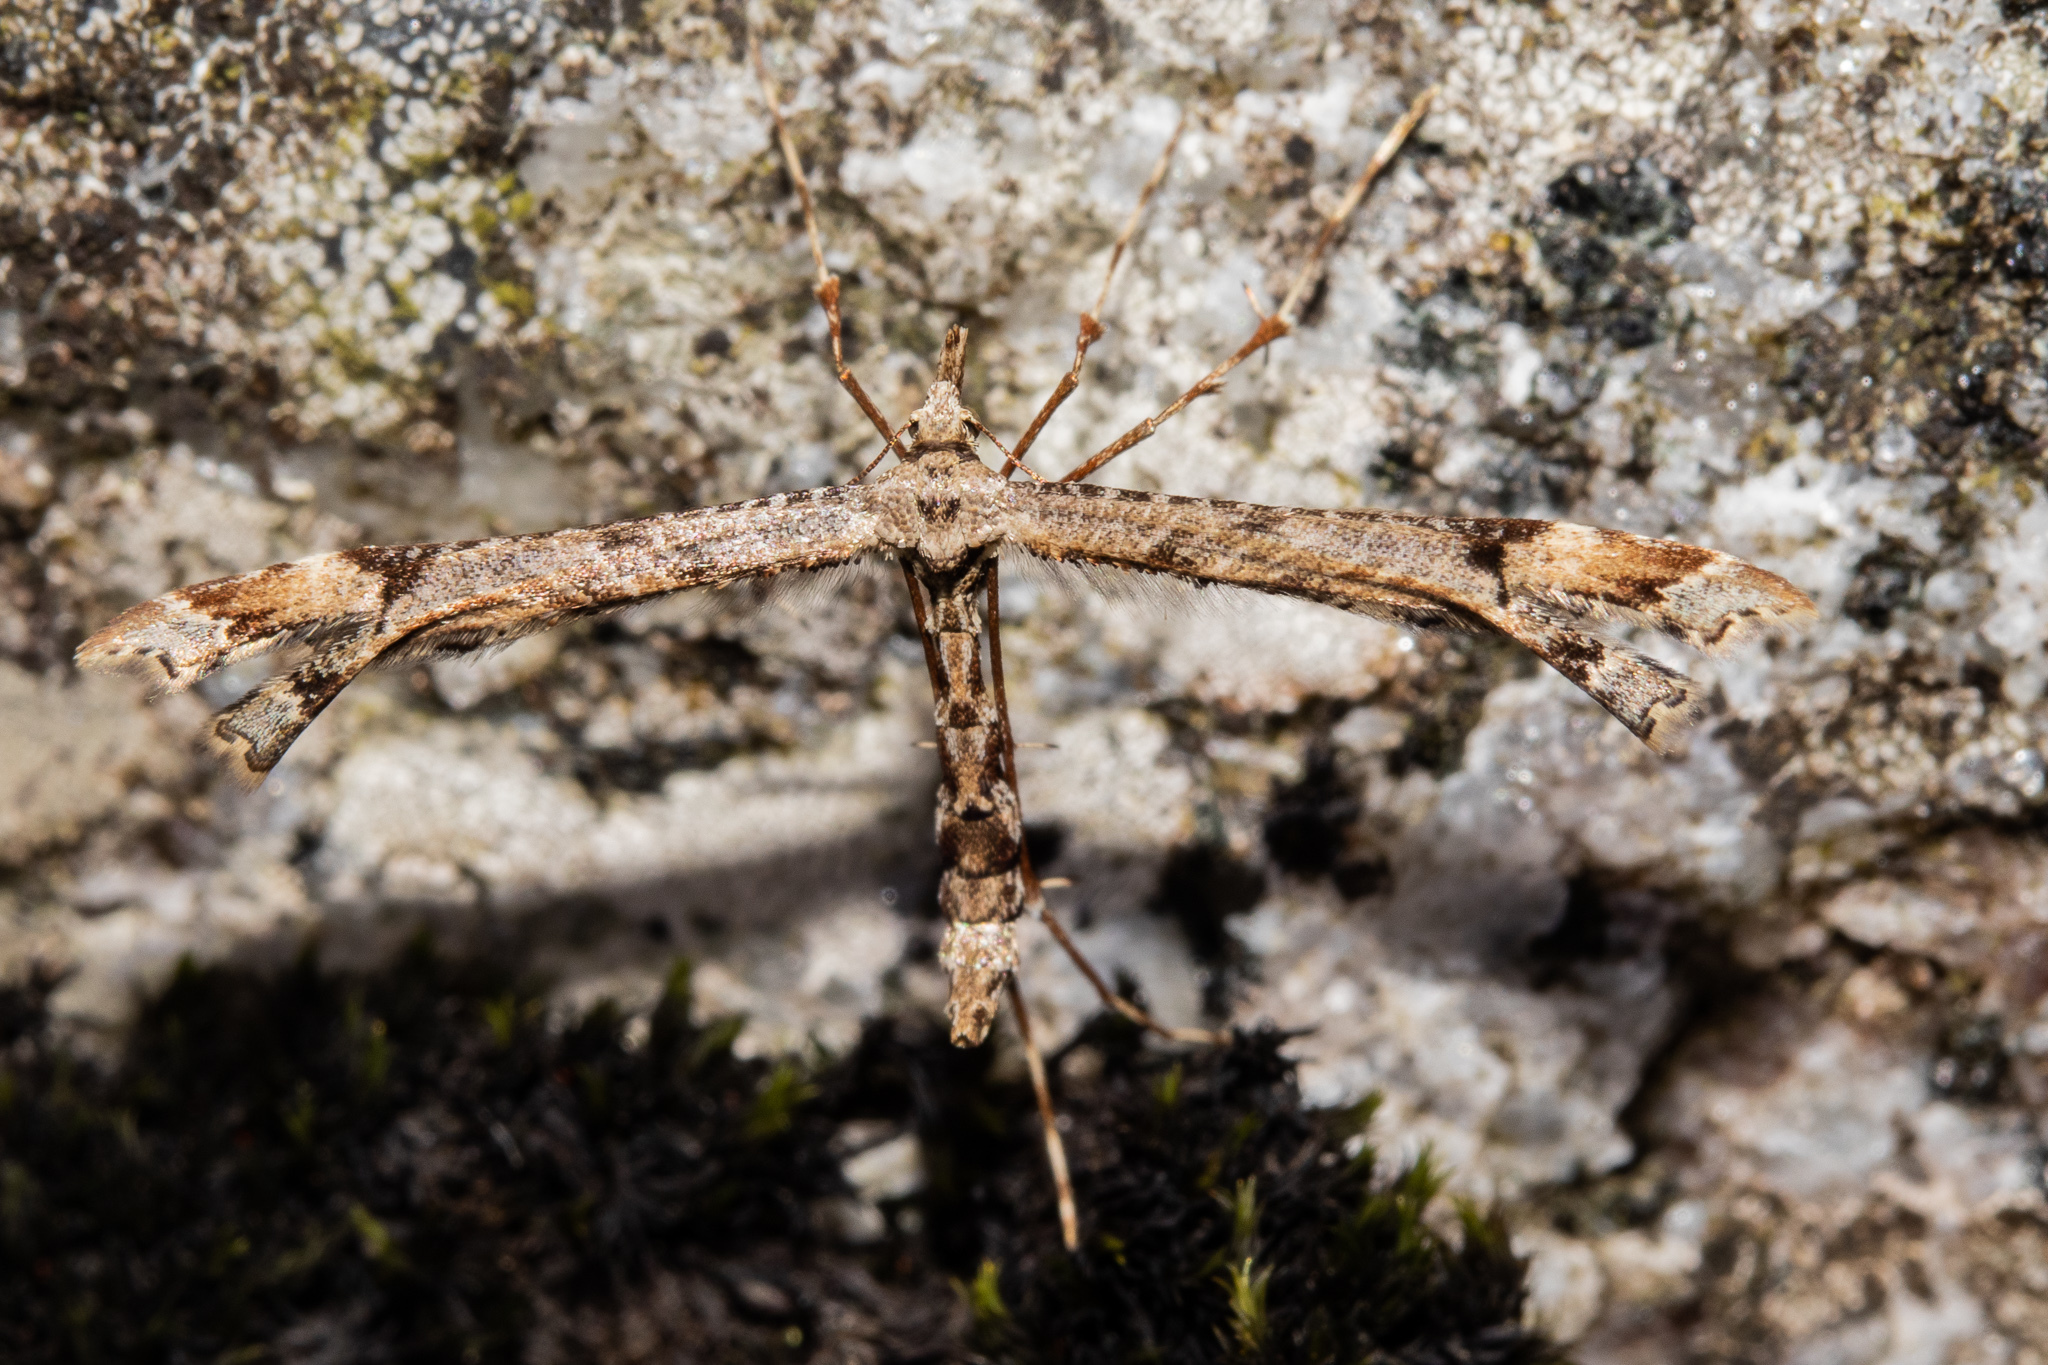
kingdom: Animalia
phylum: Arthropoda
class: Insecta
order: Lepidoptera
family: Pterophoridae
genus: Amblyptilia
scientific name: Amblyptilia repletalis
